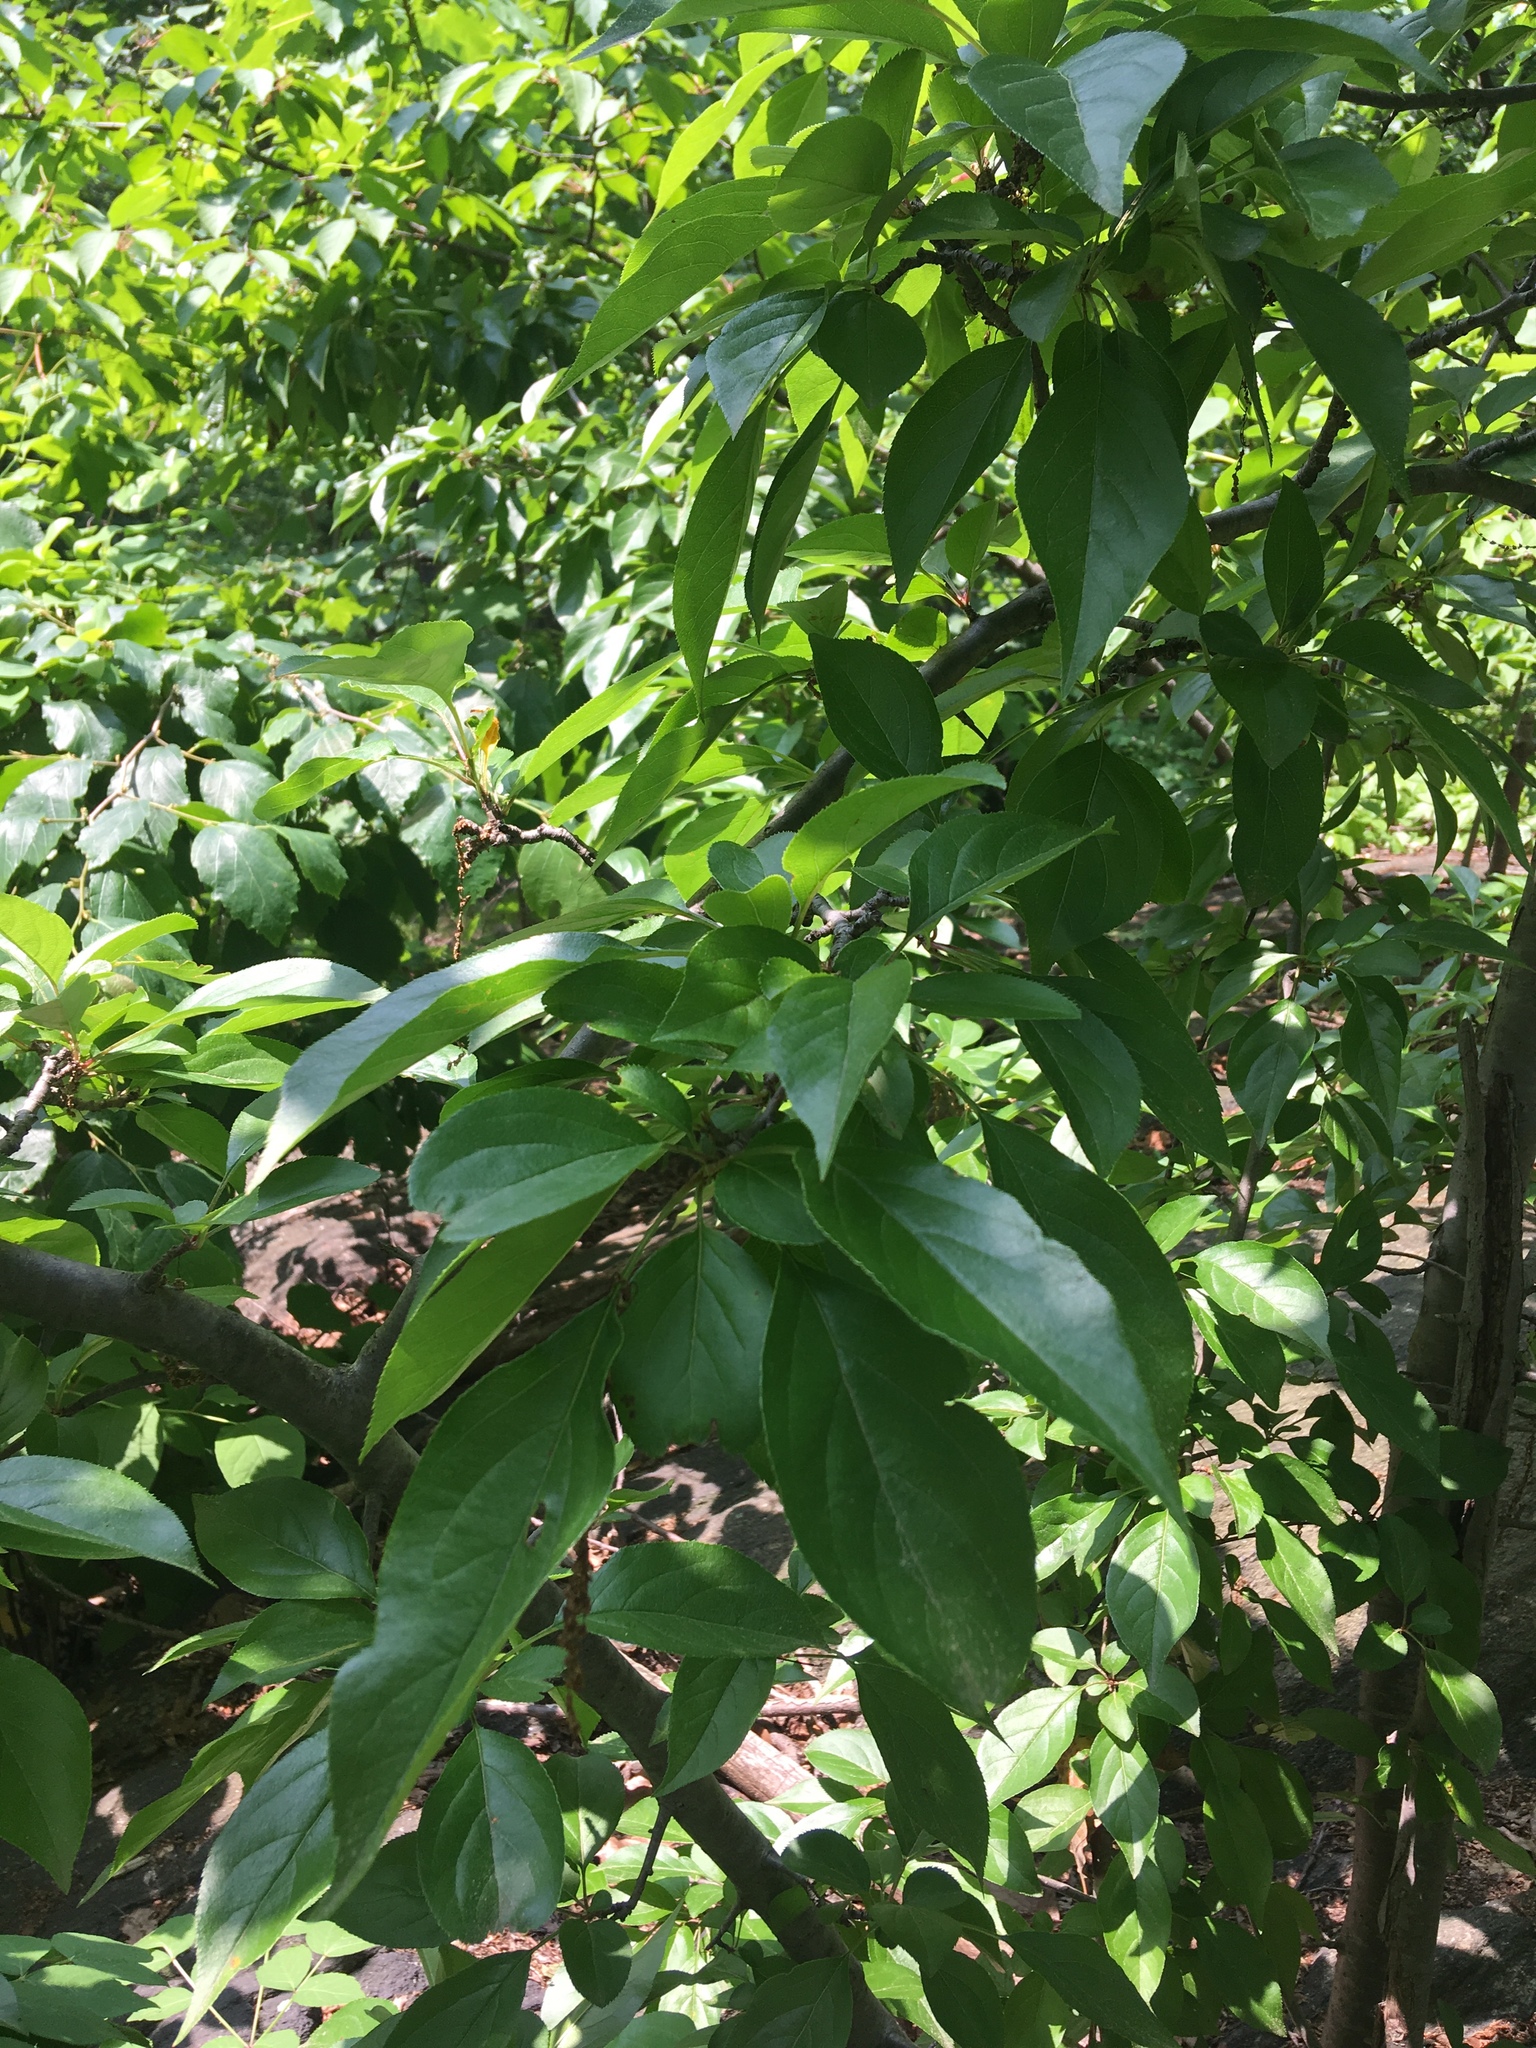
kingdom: Plantae
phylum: Tracheophyta
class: Magnoliopsida
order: Rosales
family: Rosaceae
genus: Malus
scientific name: Malus hupehensis
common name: Chinese crab apple
